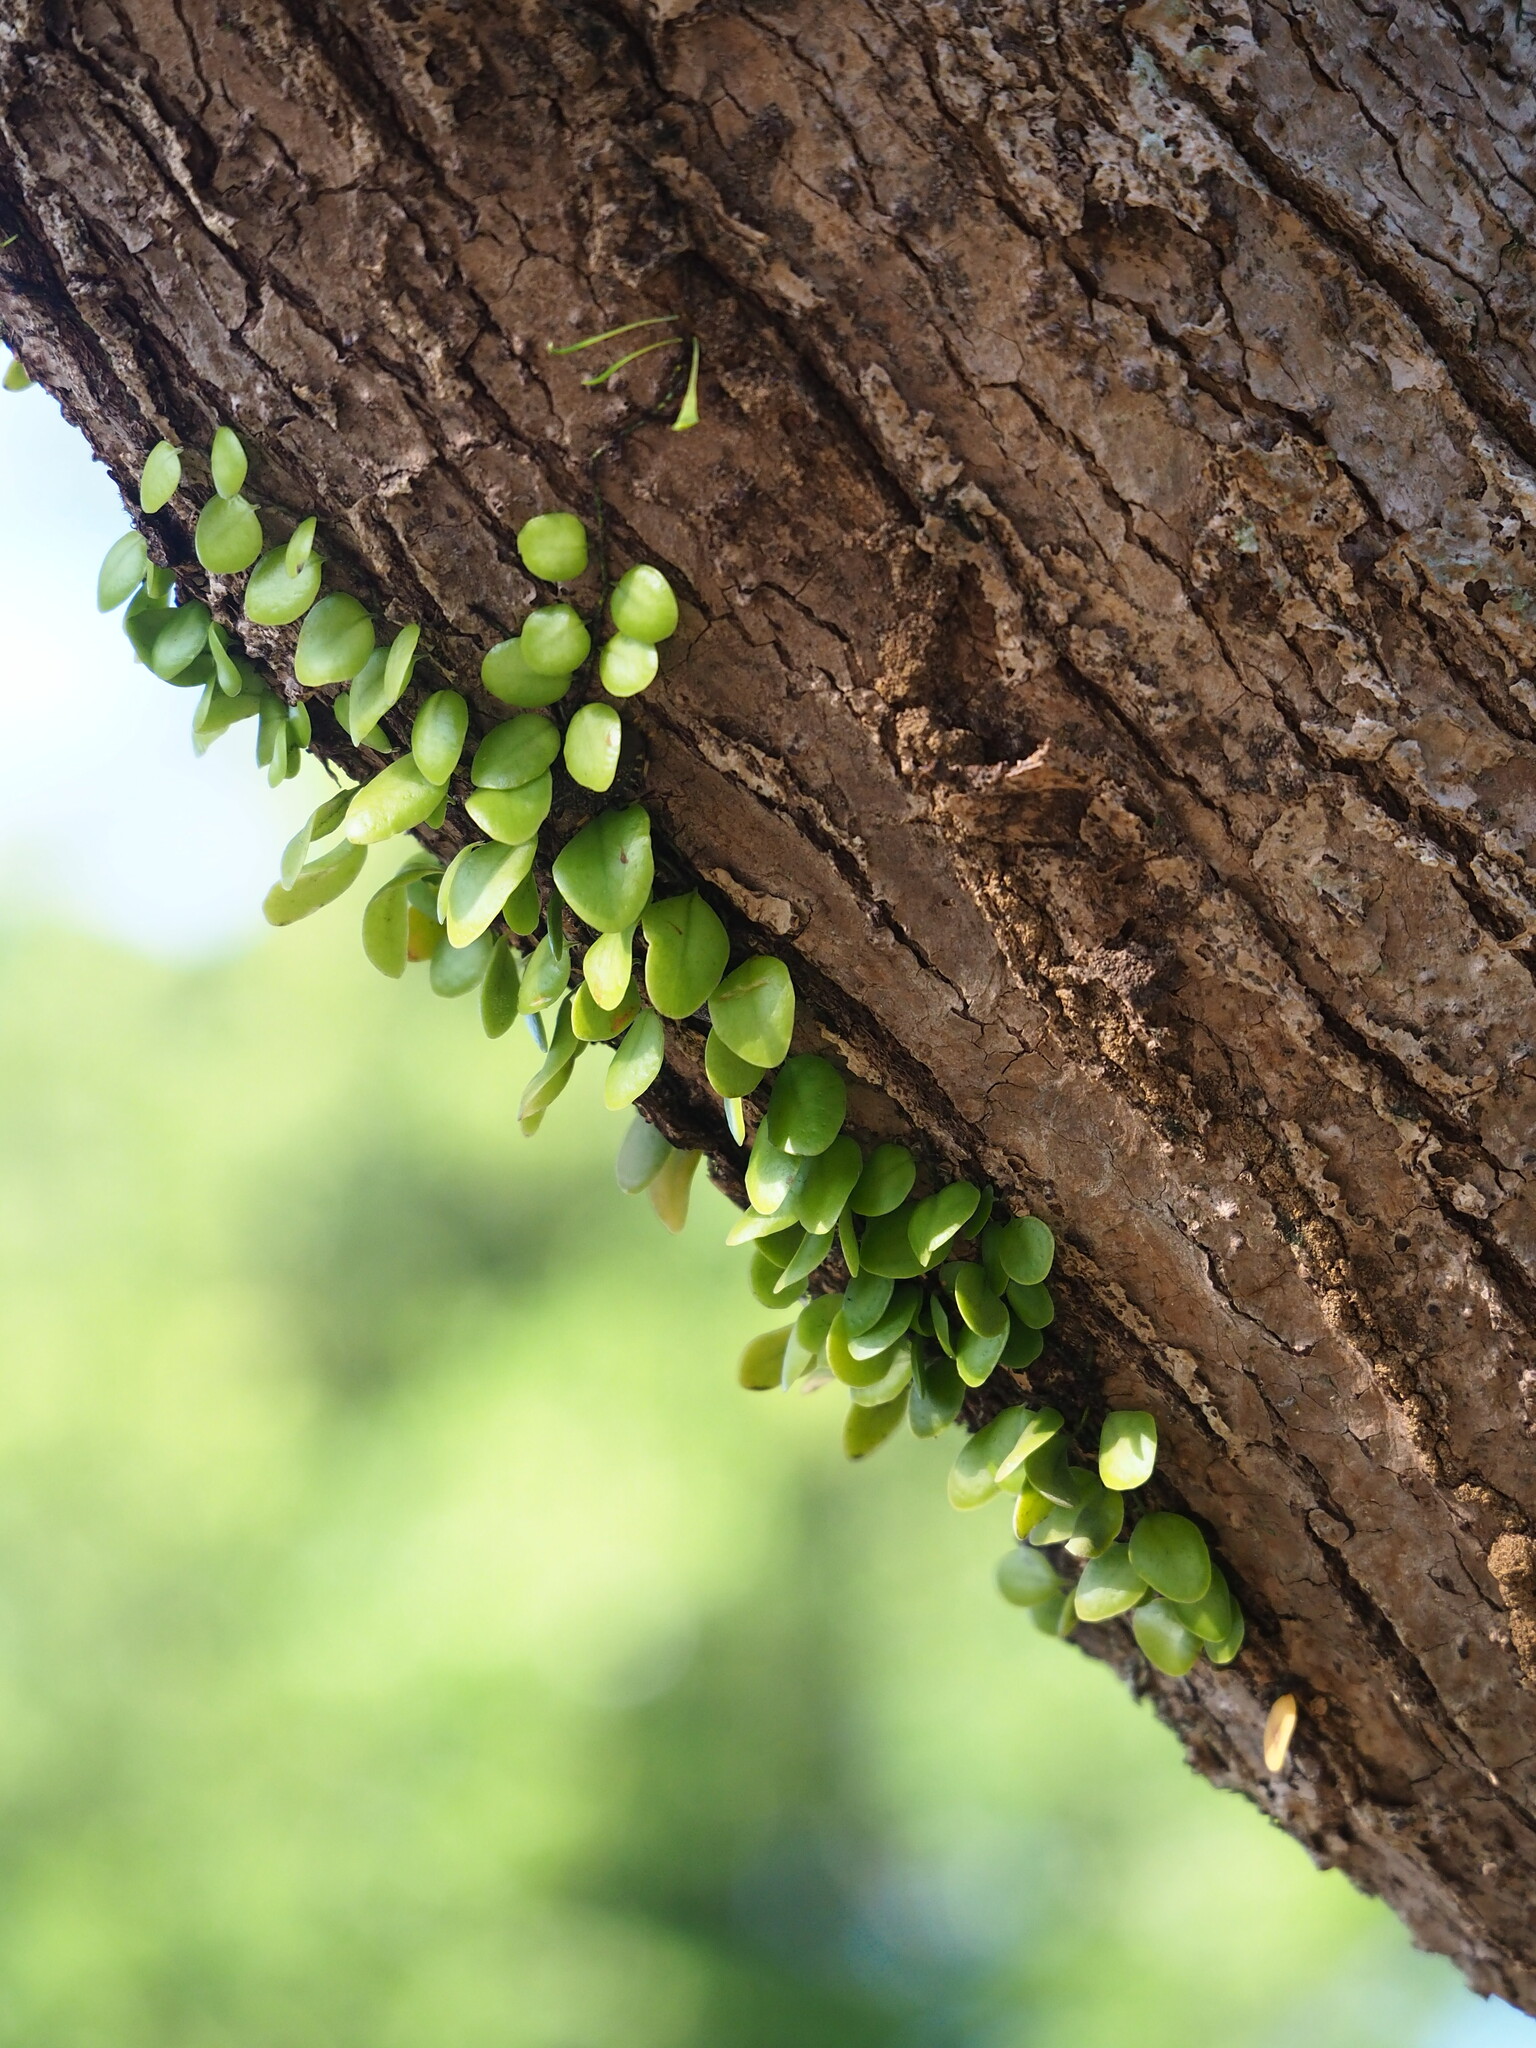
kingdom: Plantae
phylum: Tracheophyta
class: Polypodiopsida
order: Polypodiales
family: Polypodiaceae
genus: Lepisorus
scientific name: Lepisorus microphyllus
